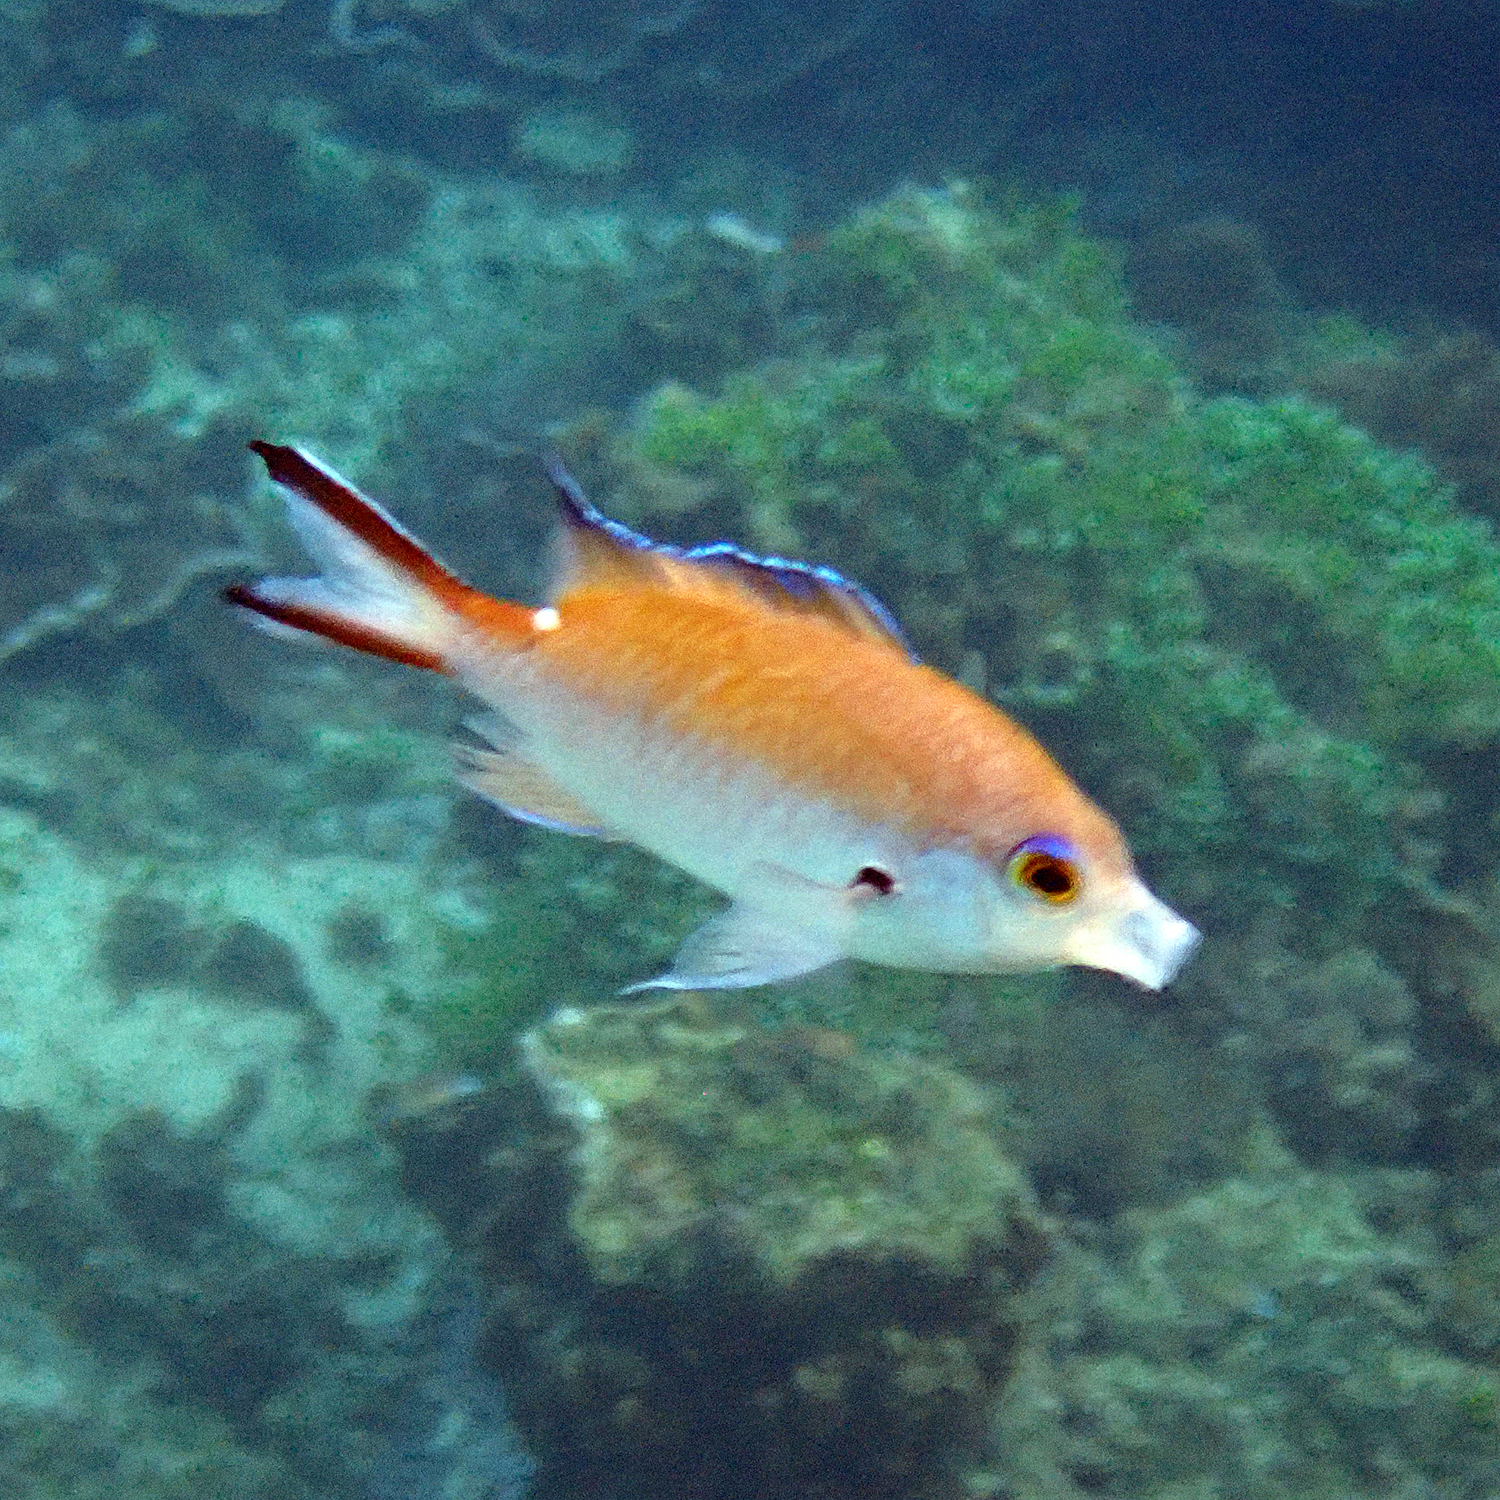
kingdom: Animalia
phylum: Chordata
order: Perciformes
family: Pomacentridae
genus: Chromis
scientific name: Chromis norfolkensis
